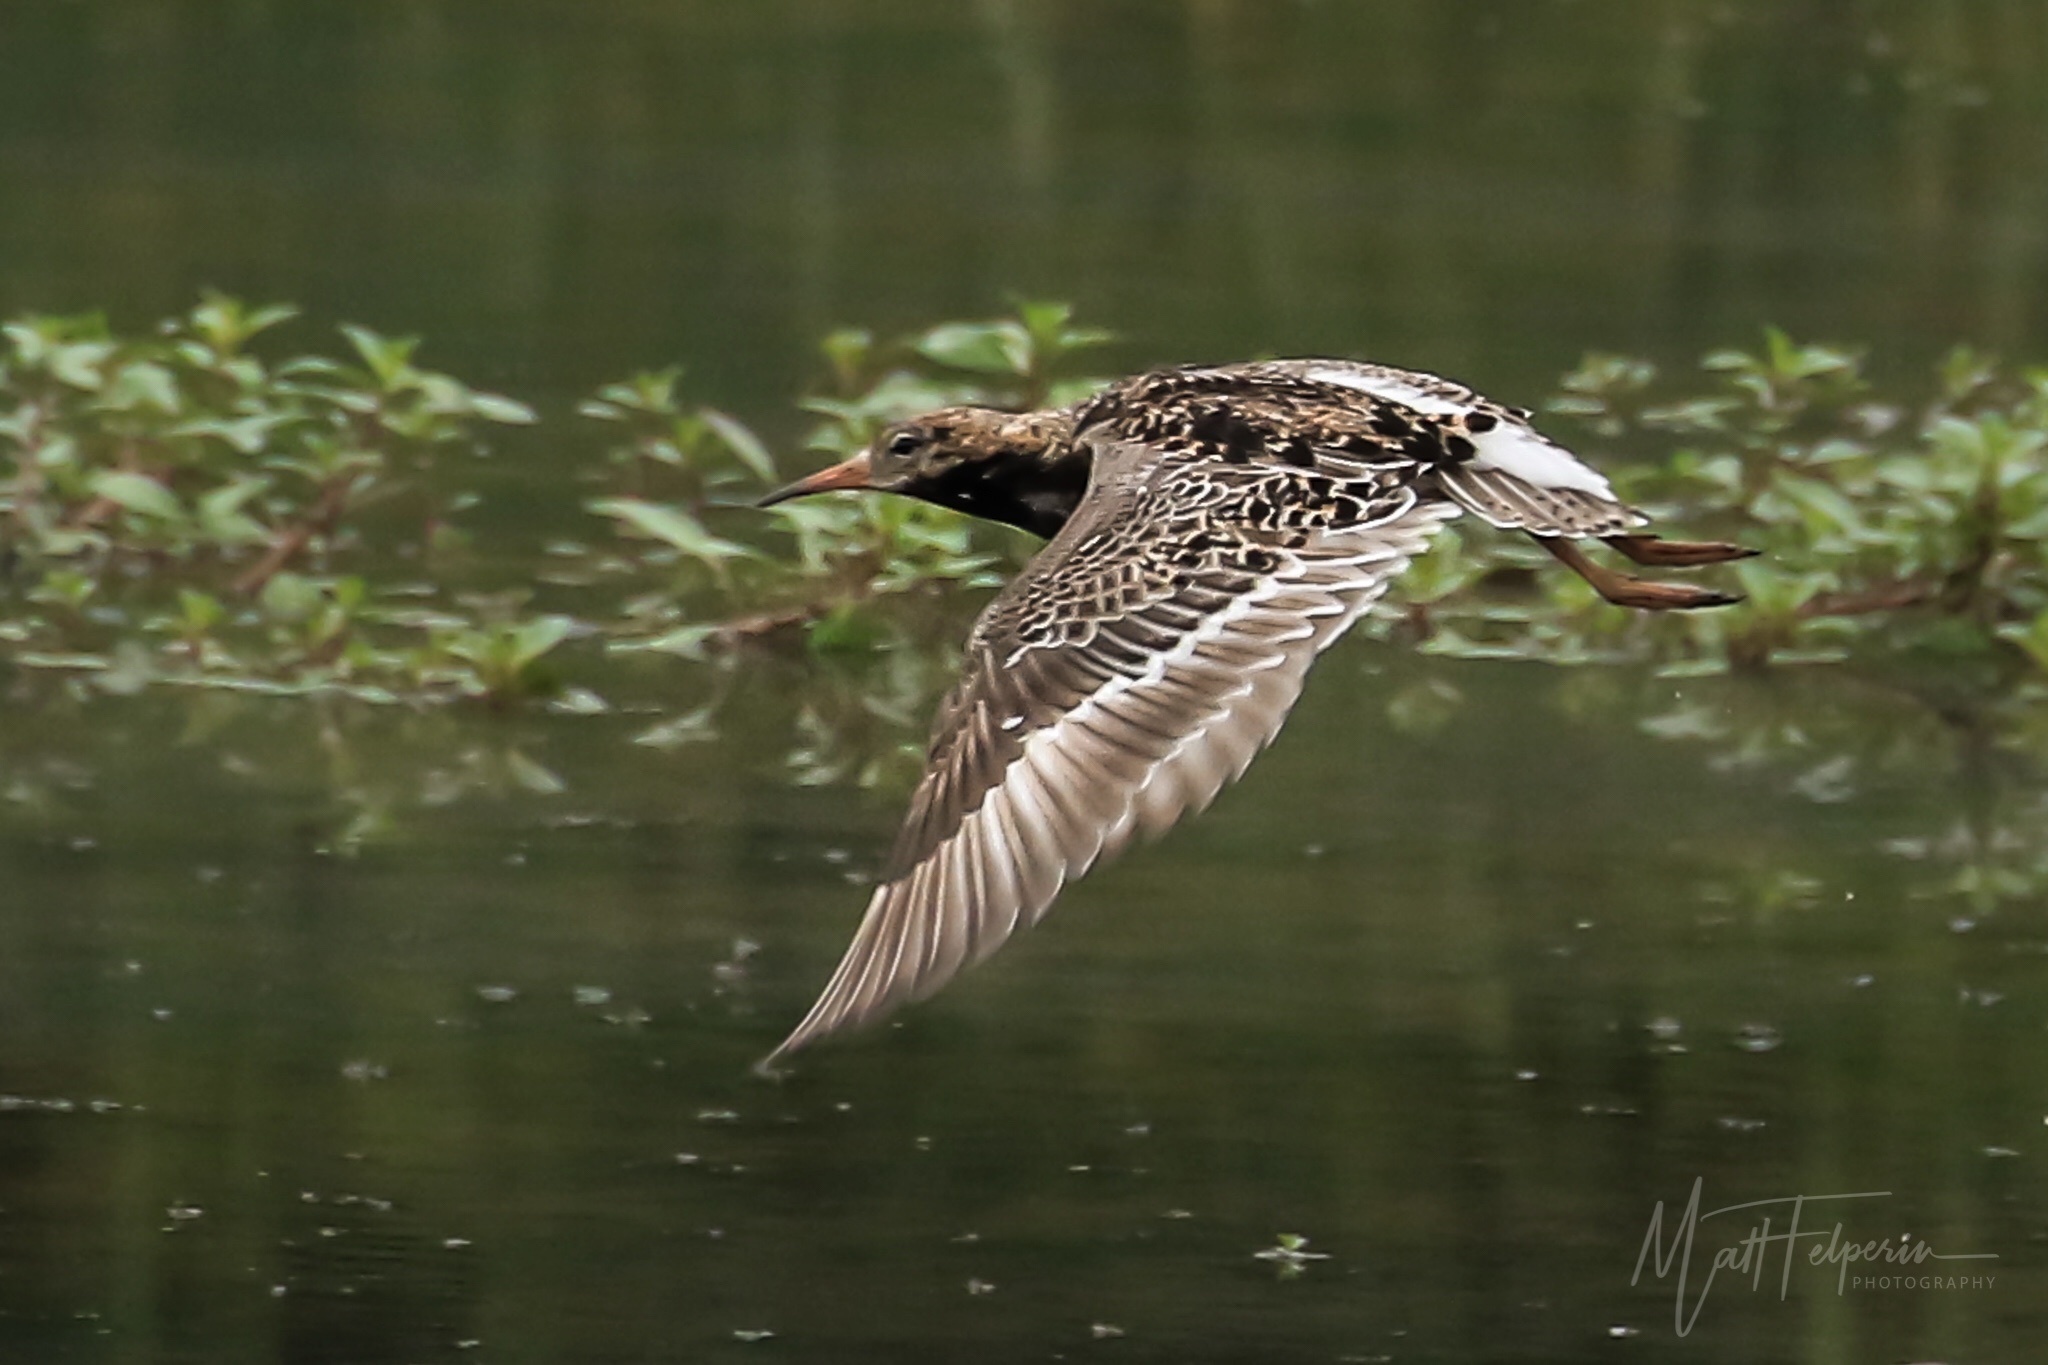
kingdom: Animalia
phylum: Chordata
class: Aves
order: Charadriiformes
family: Scolopacidae
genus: Calidris
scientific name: Calidris pugnax
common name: Ruff
